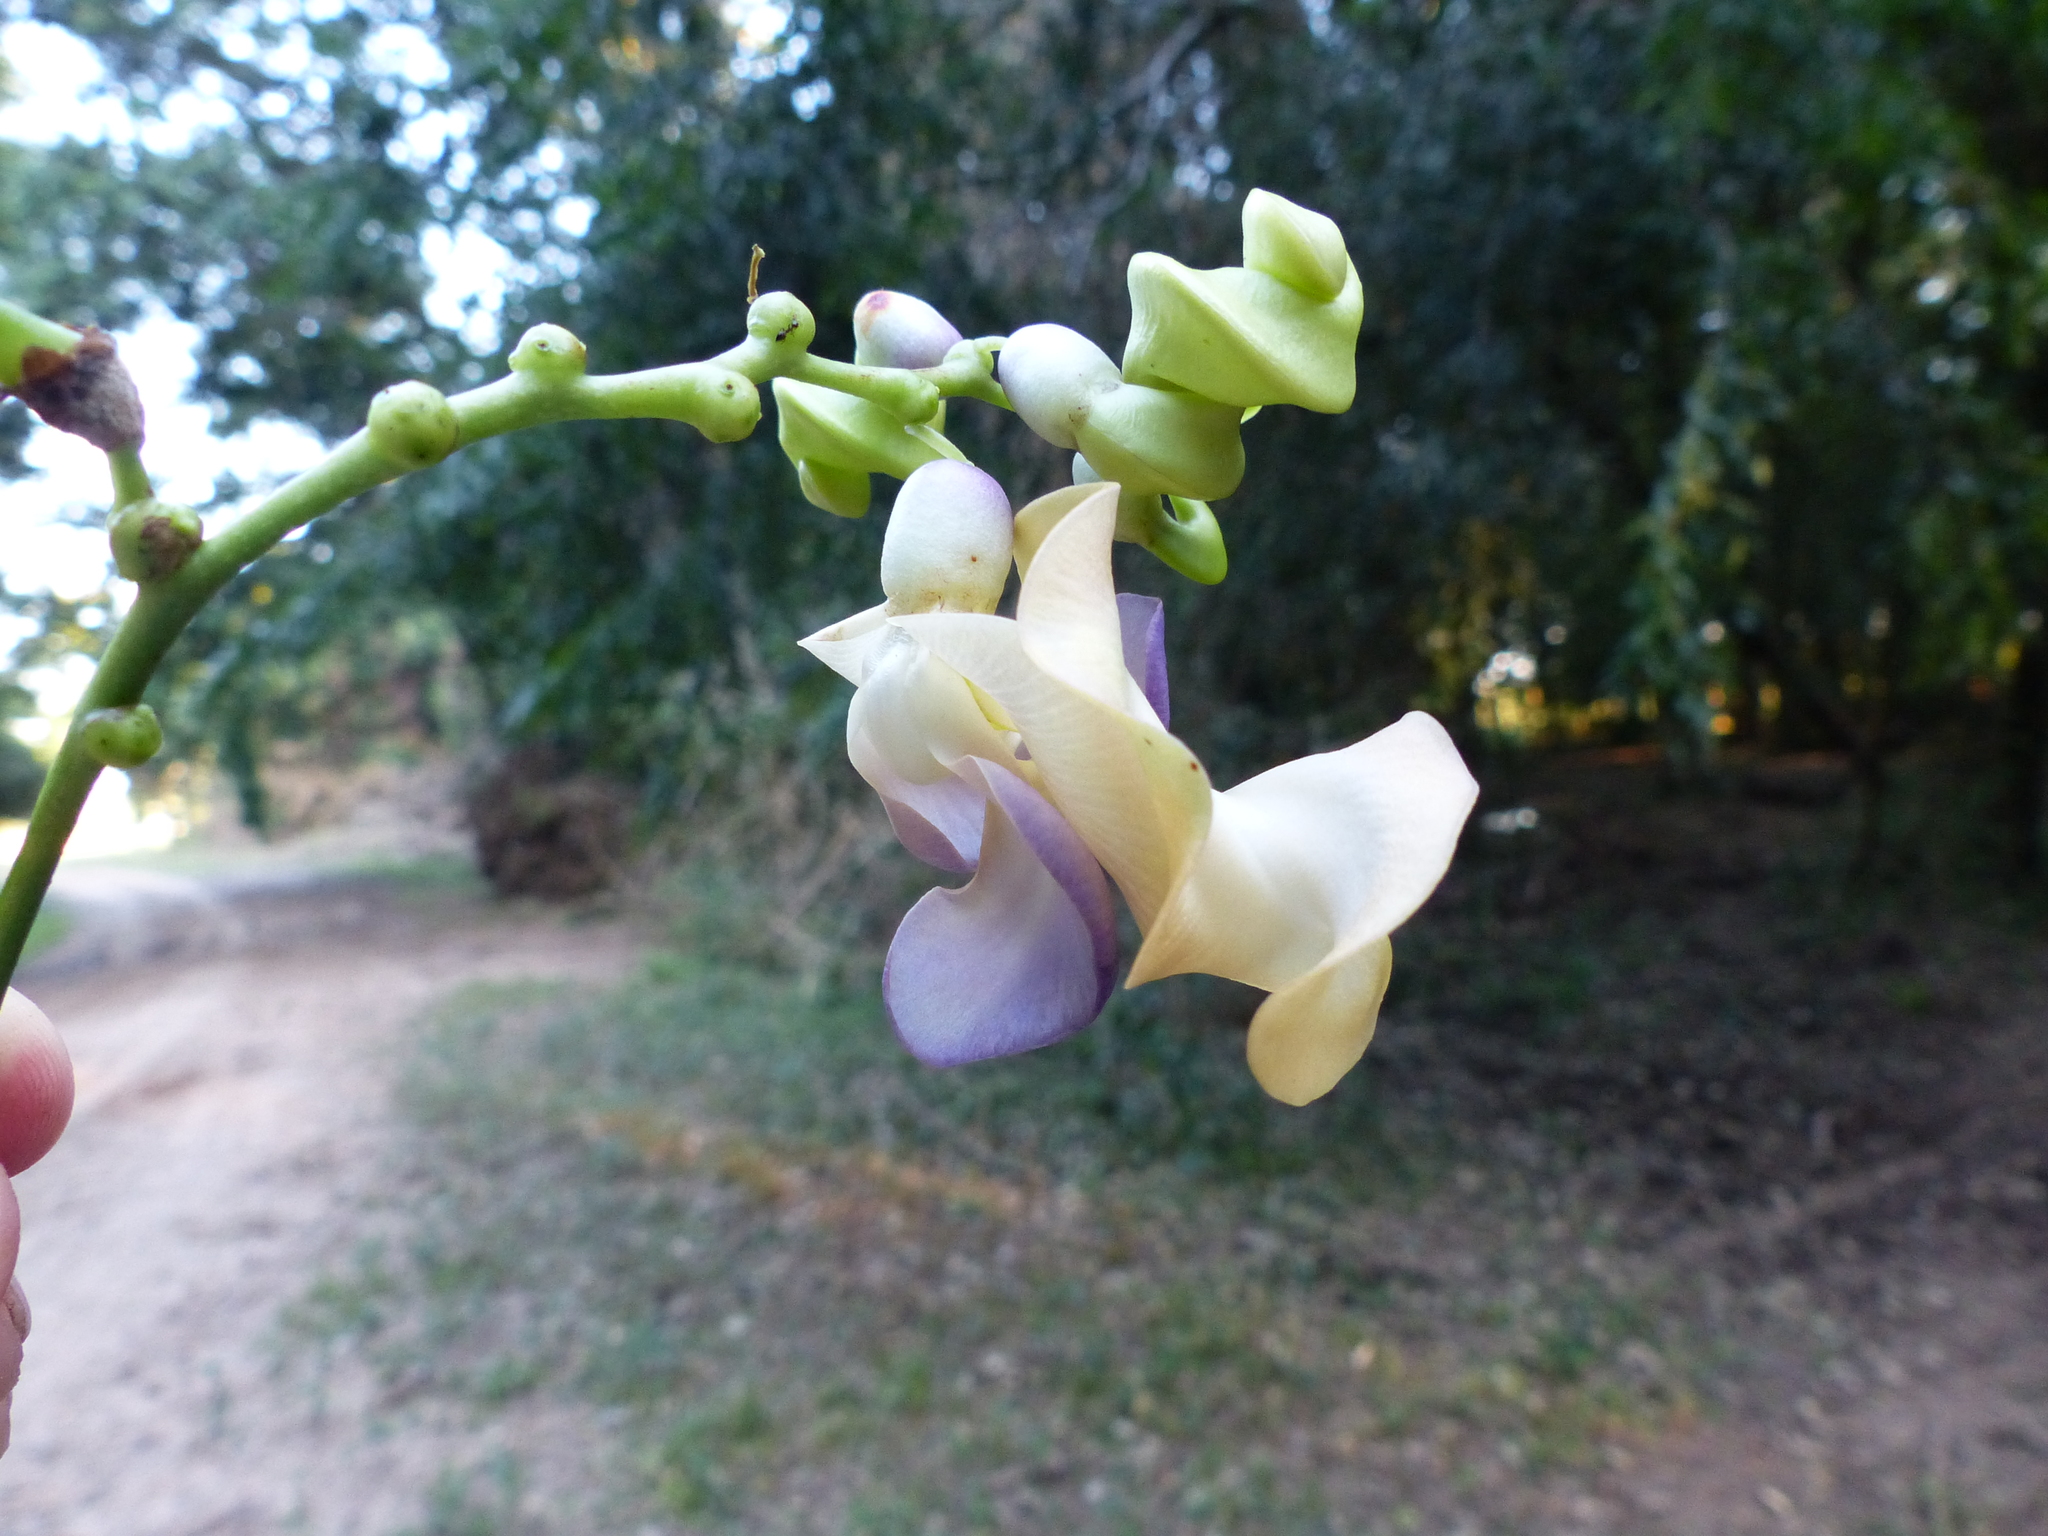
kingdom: Plantae
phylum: Tracheophyta
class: Magnoliopsida
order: Fabales
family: Fabaceae
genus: Cochliasanthus
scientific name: Cochliasanthus caracalla
